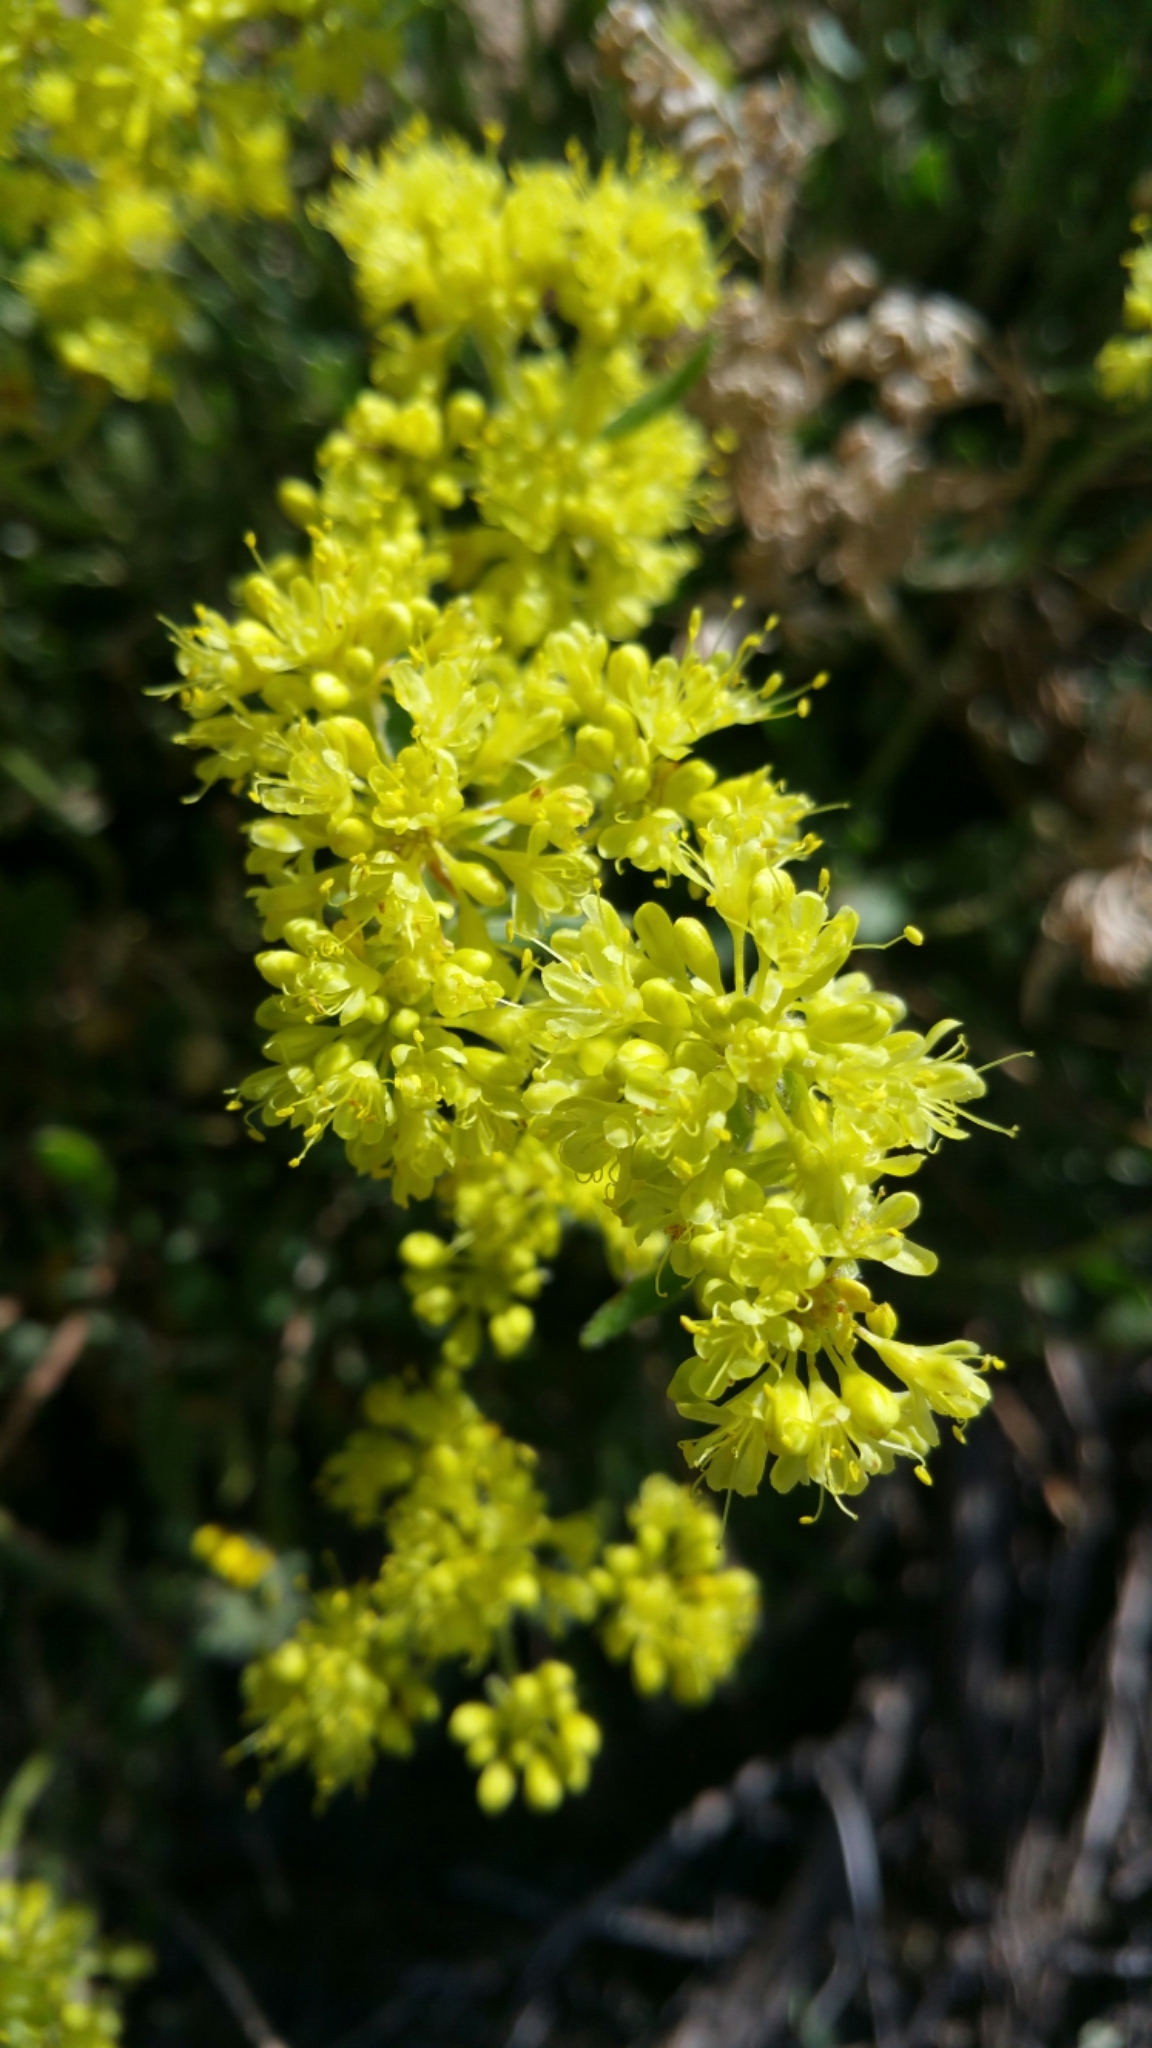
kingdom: Plantae
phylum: Tracheophyta
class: Magnoliopsida
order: Caryophyllales
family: Polygonaceae
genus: Eriogonum
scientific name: Eriogonum umbellatum
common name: Sulfur-buckwheat
